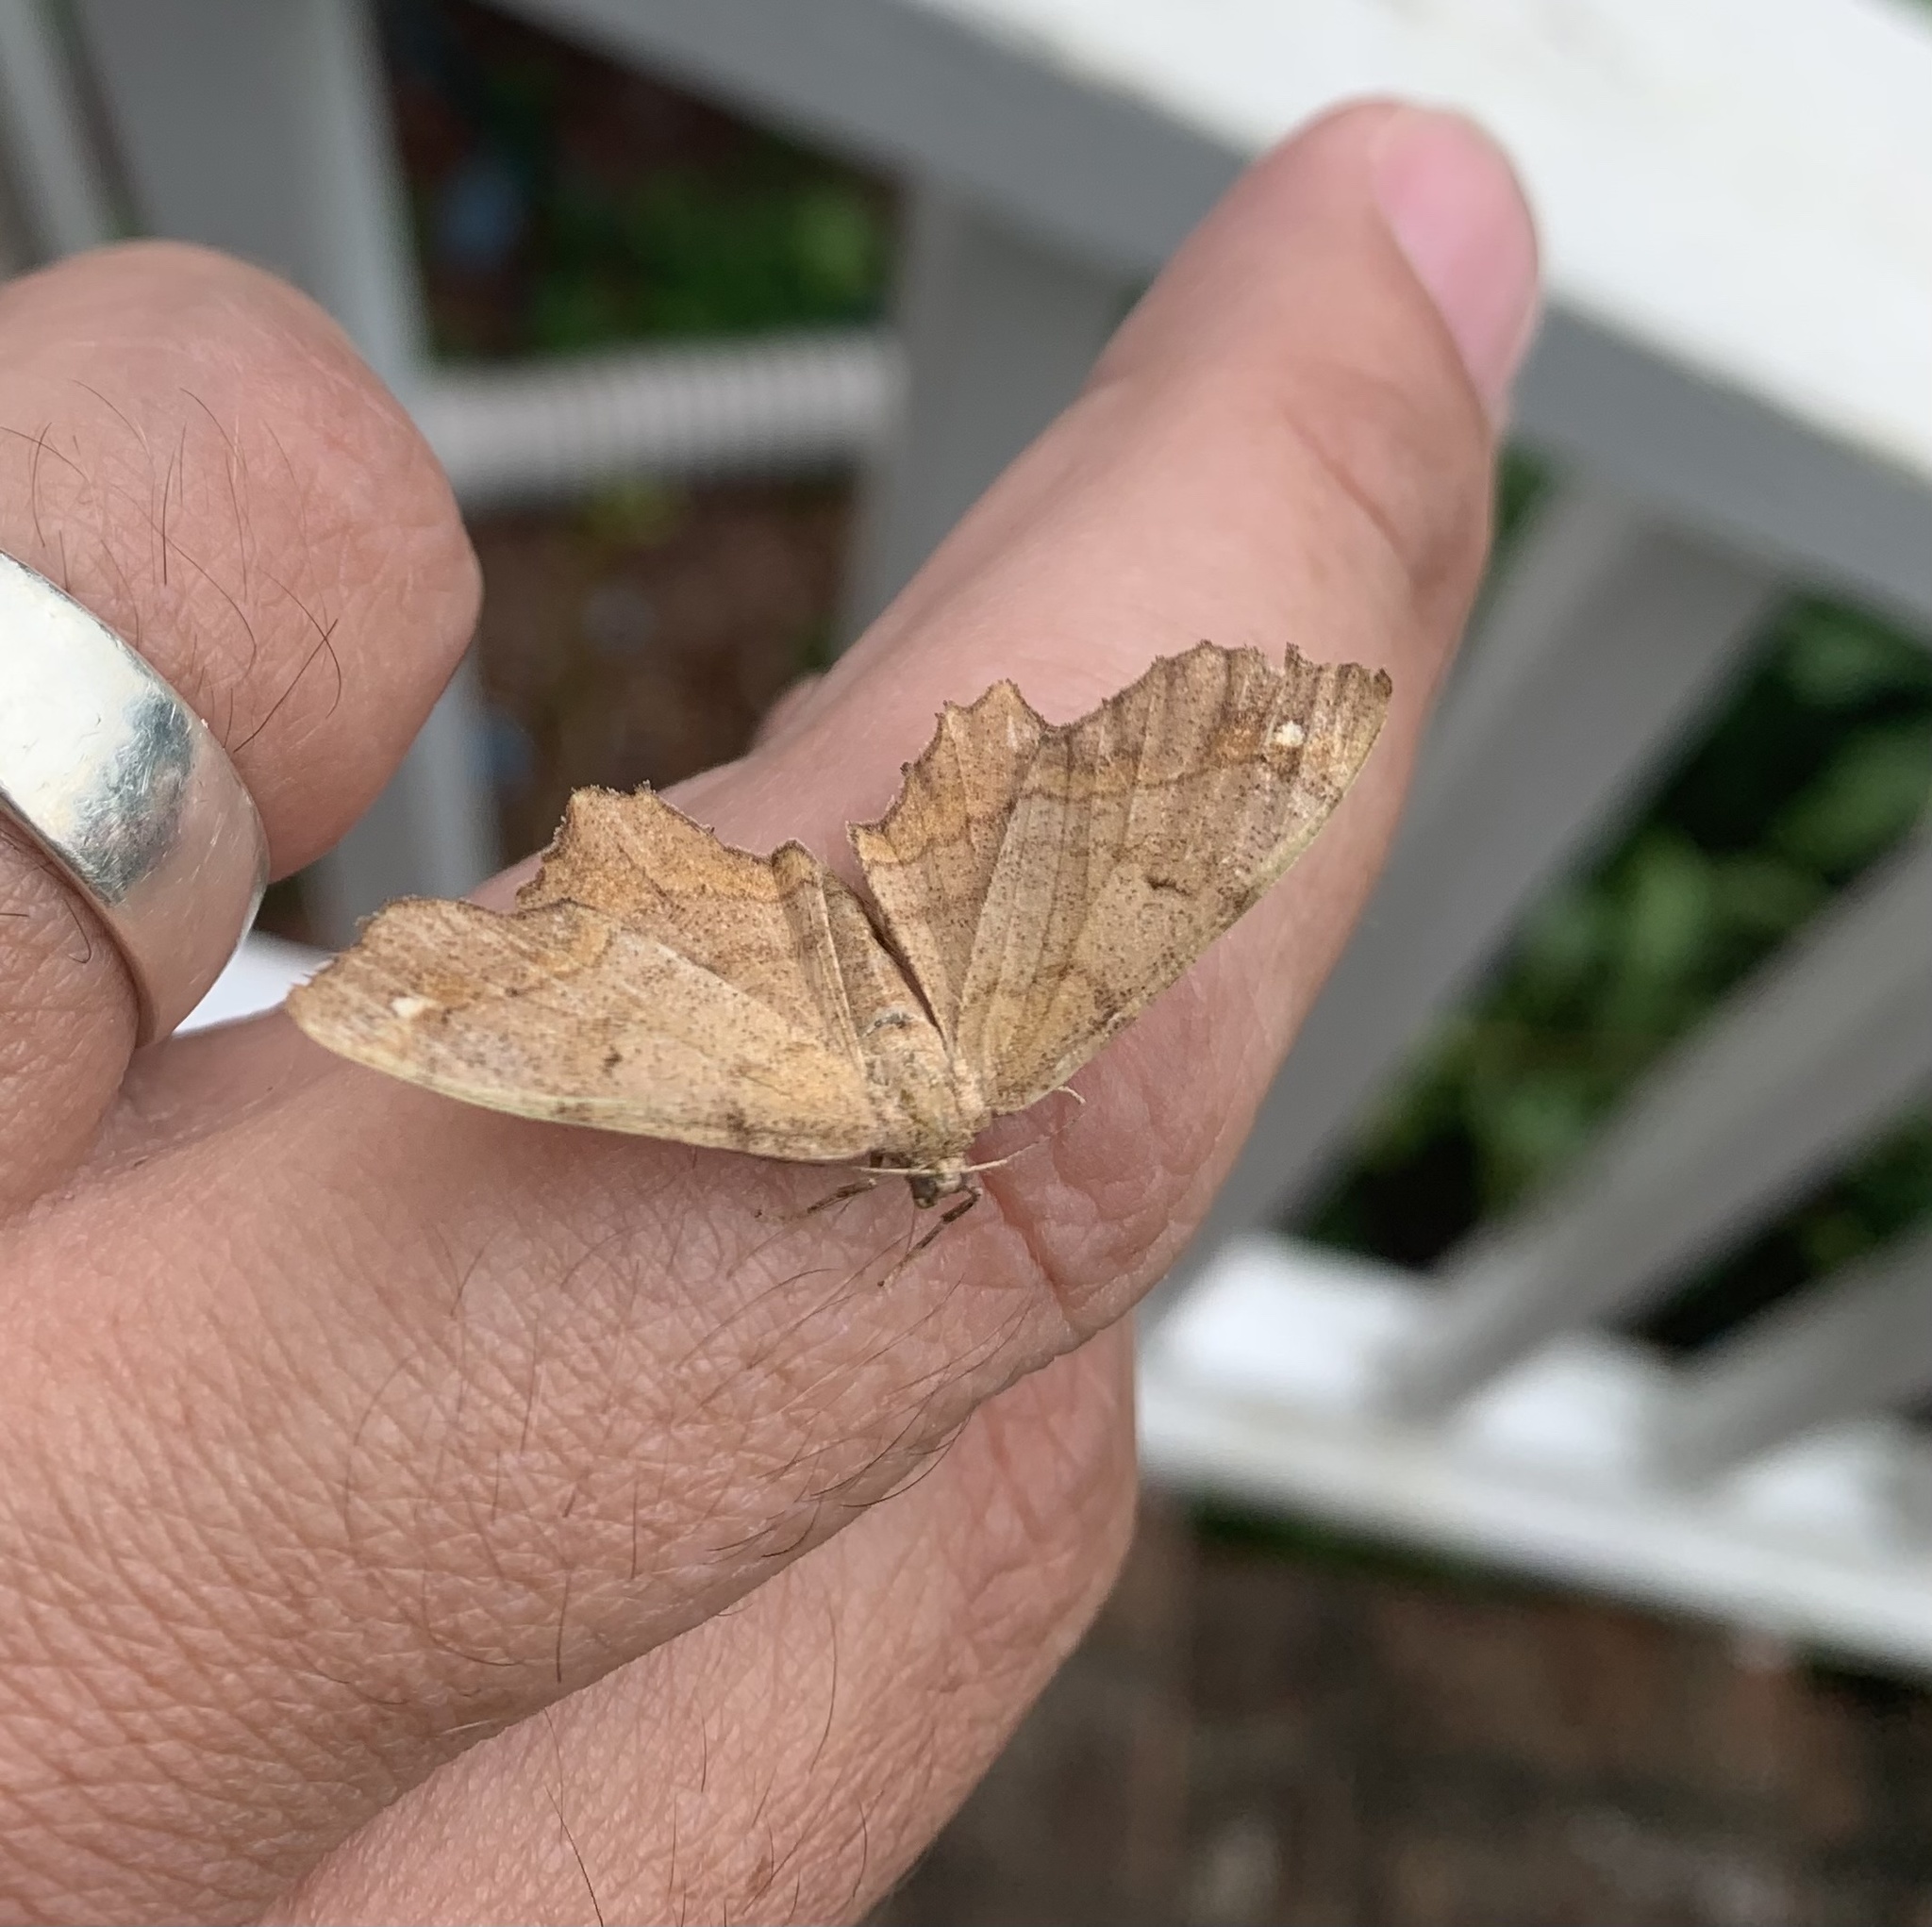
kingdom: Animalia
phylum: Arthropoda
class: Insecta
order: Lepidoptera
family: Geometridae
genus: Hypagyrtis
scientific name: Hypagyrtis esther
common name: Esther moth
